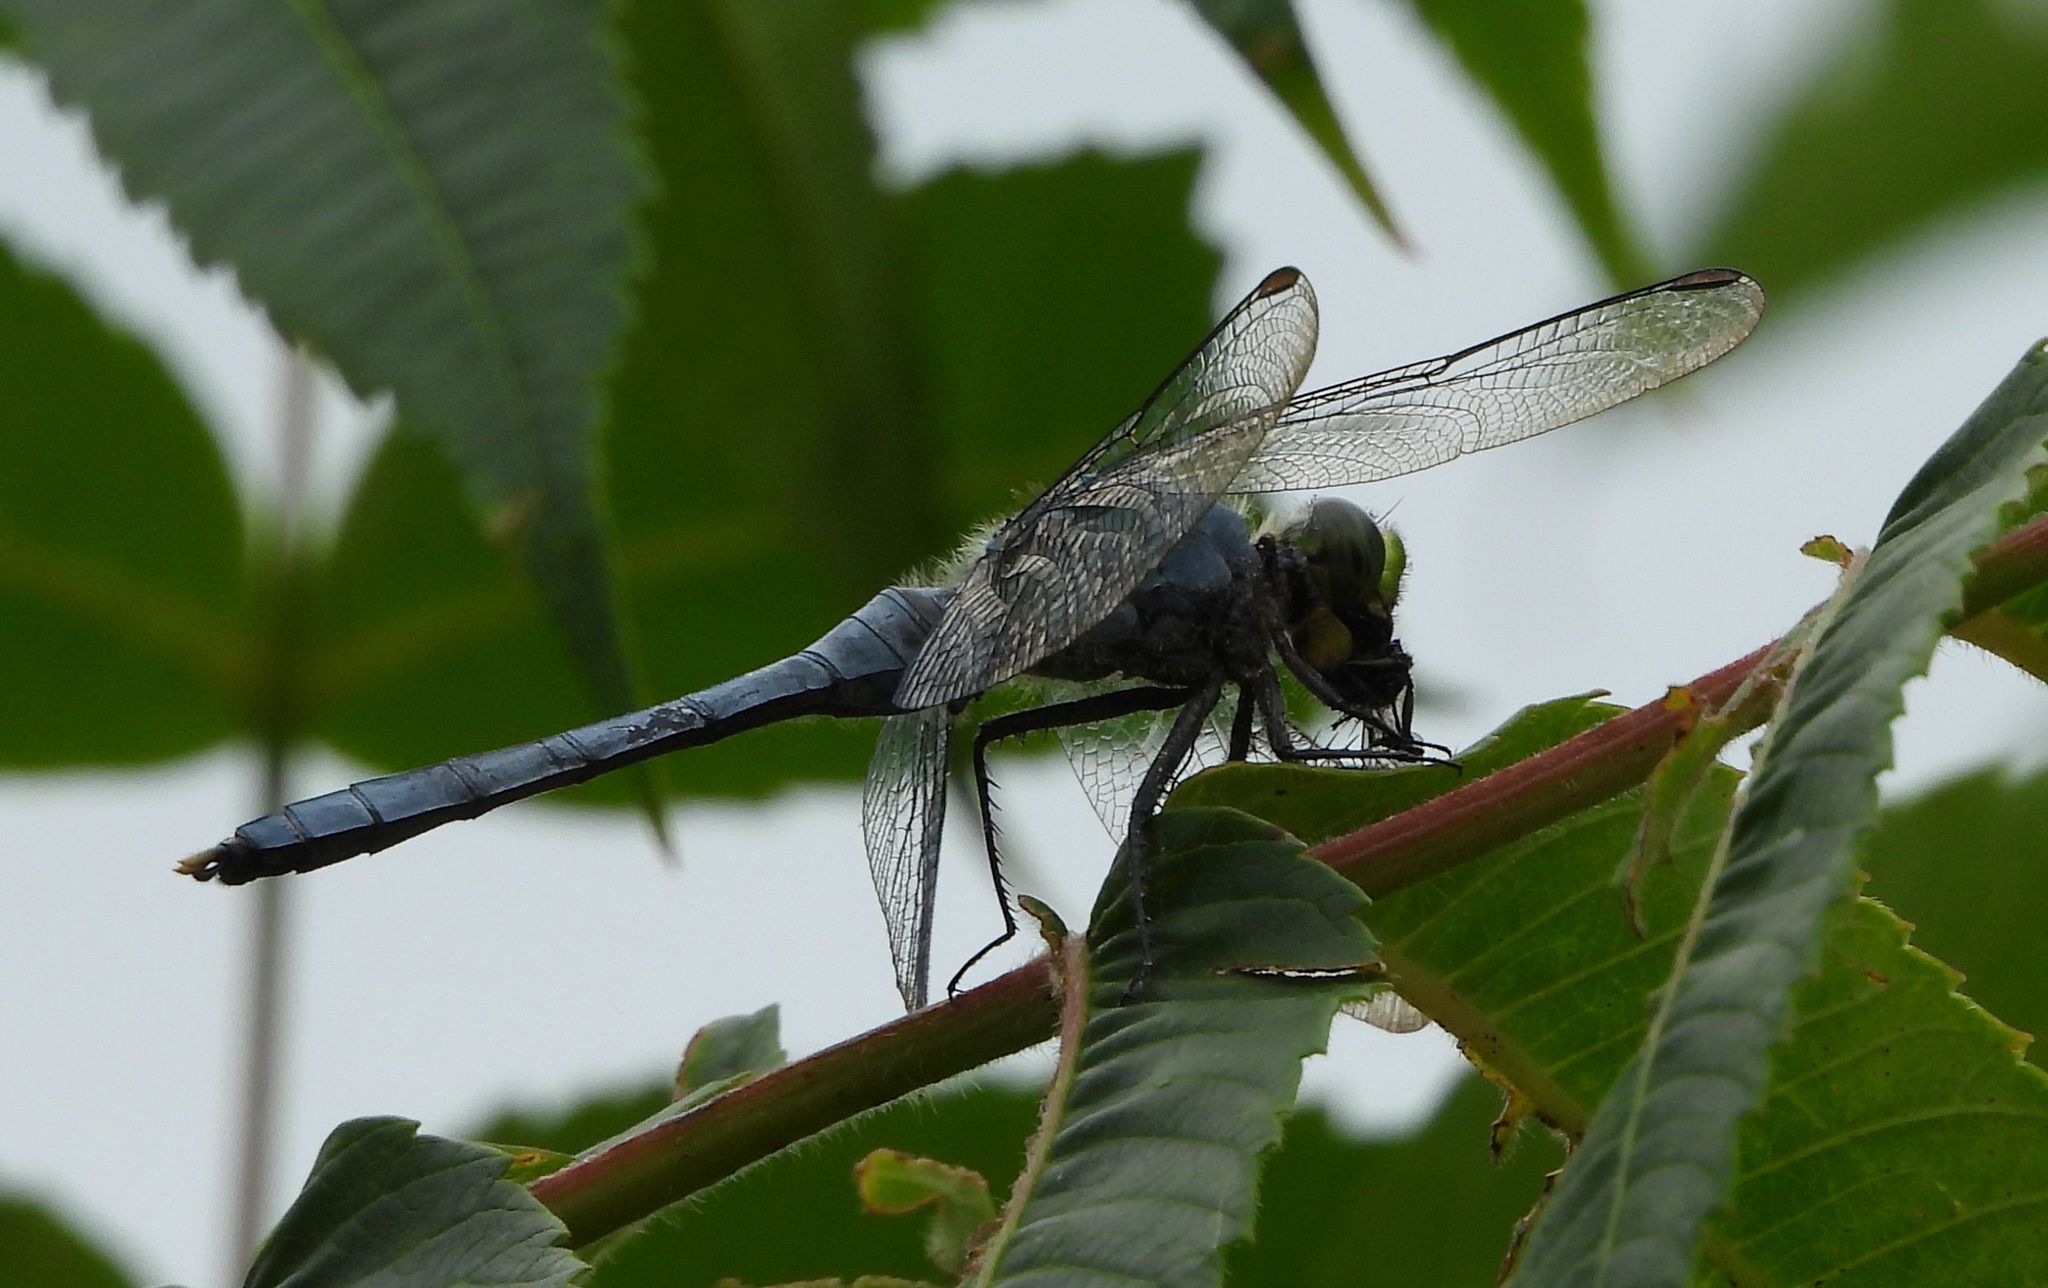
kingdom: Animalia
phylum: Arthropoda
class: Insecta
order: Odonata
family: Libellulidae
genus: Erythemis
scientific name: Erythemis simplicicollis
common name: Eastern pondhawk
